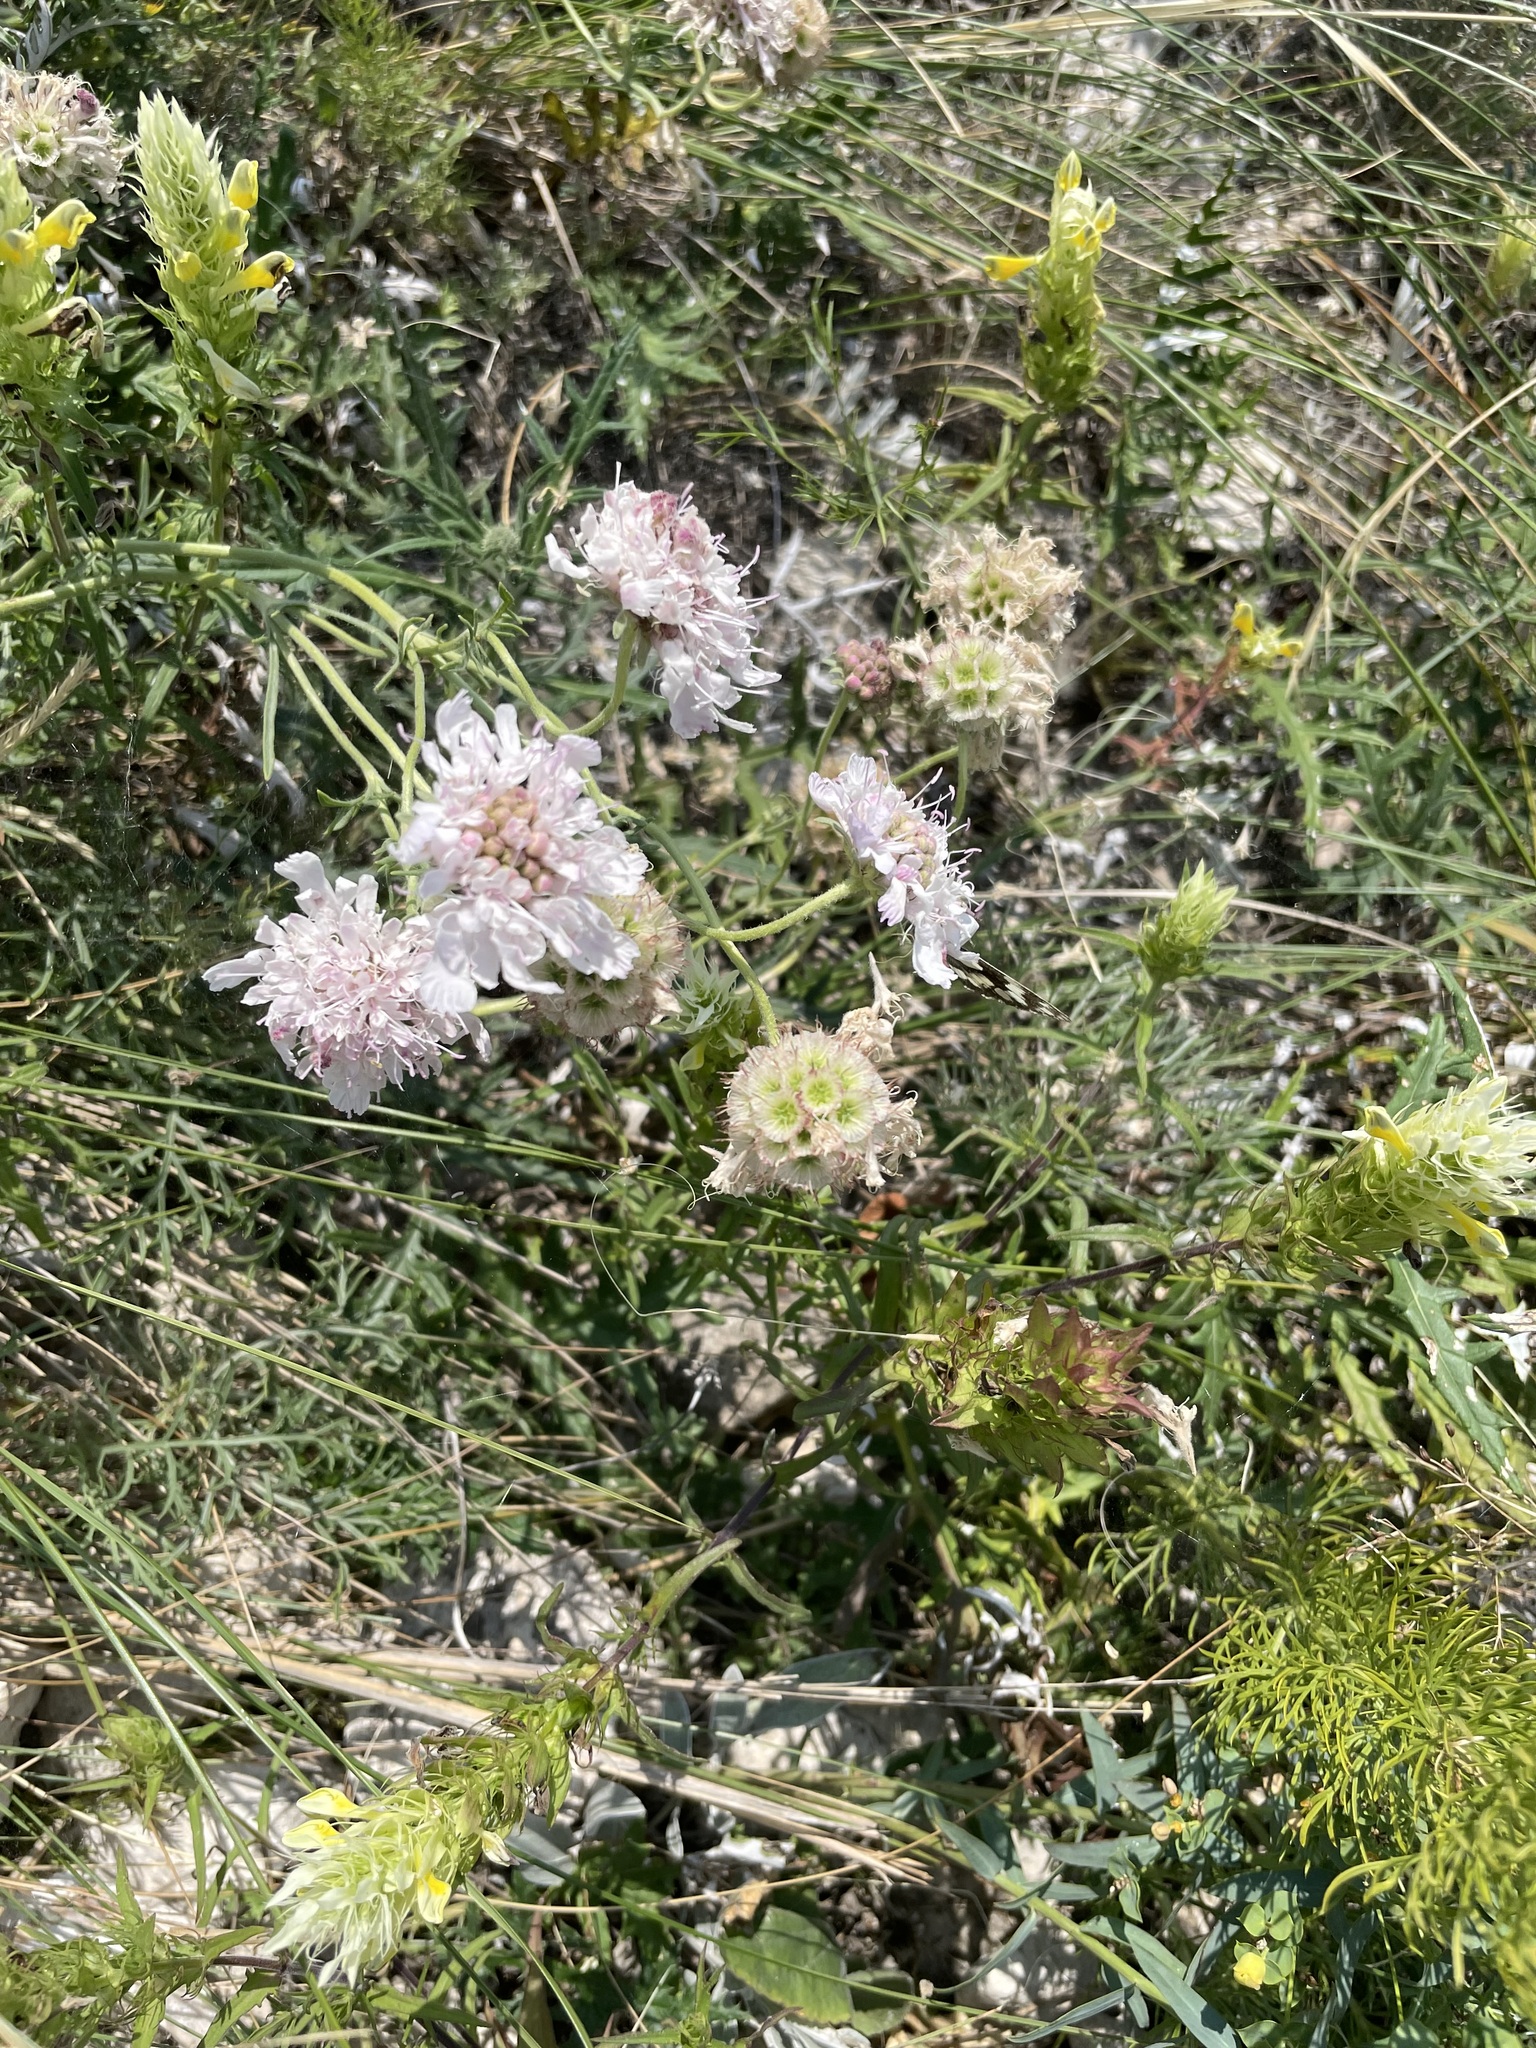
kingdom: Plantae
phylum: Tracheophyta
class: Magnoliopsida
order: Dipsacales
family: Caprifoliaceae
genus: Lomelosia
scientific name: Lomelosia isetensis
